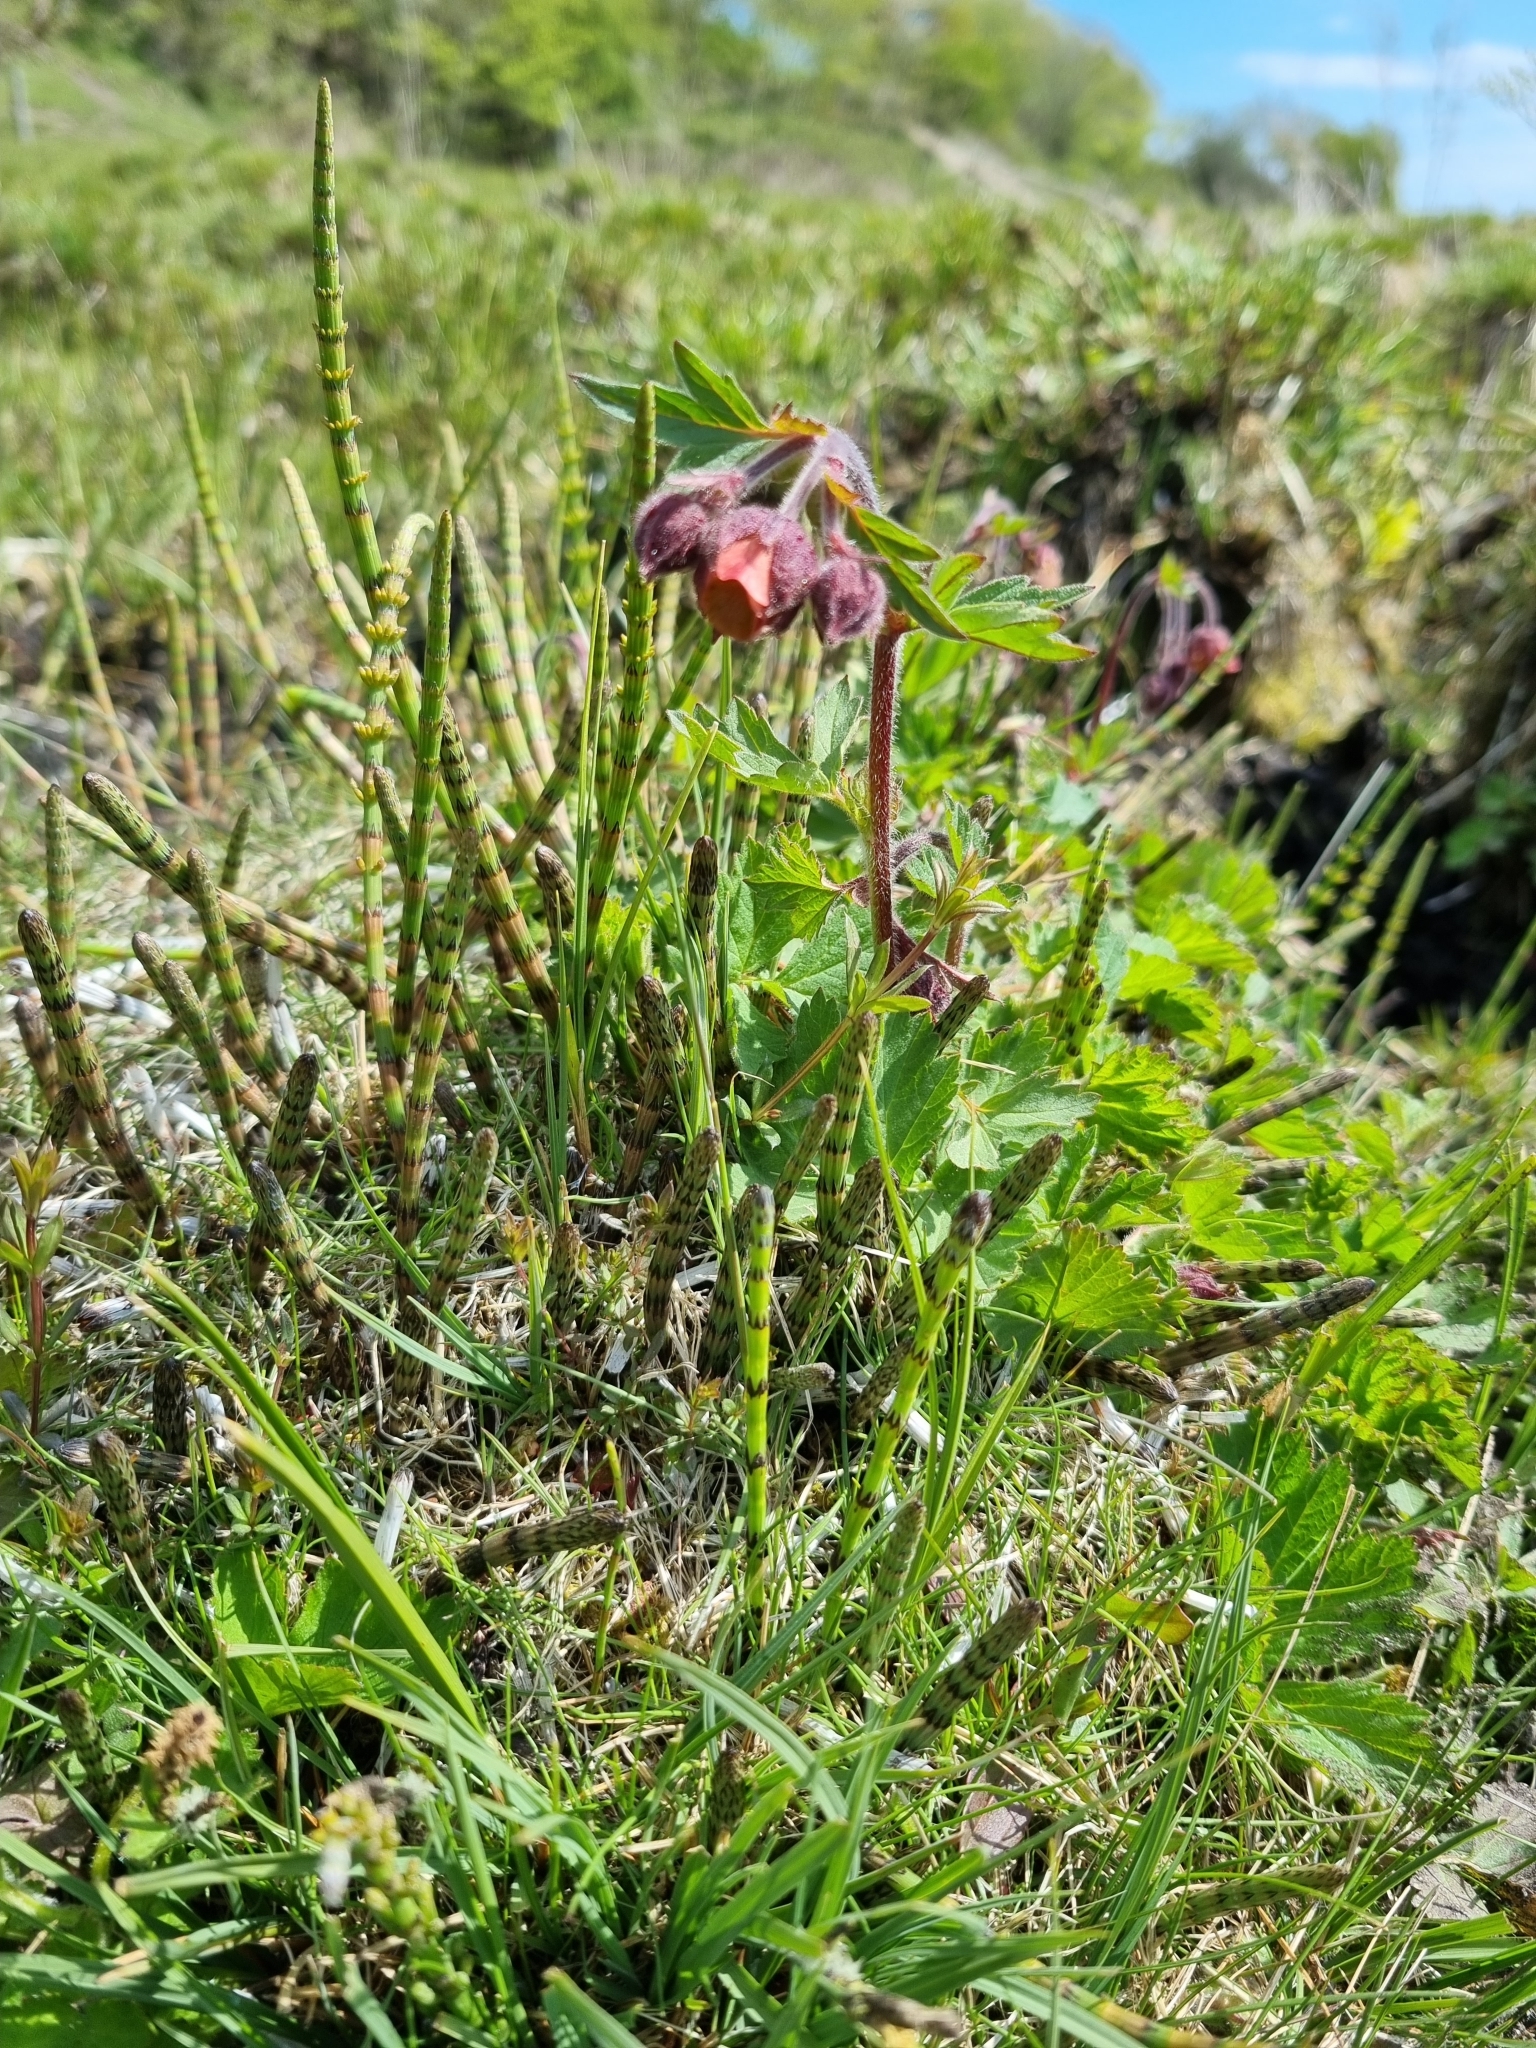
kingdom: Plantae
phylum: Tracheophyta
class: Magnoliopsida
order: Rosales
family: Rosaceae
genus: Geum
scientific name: Geum rivale
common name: Water avens
